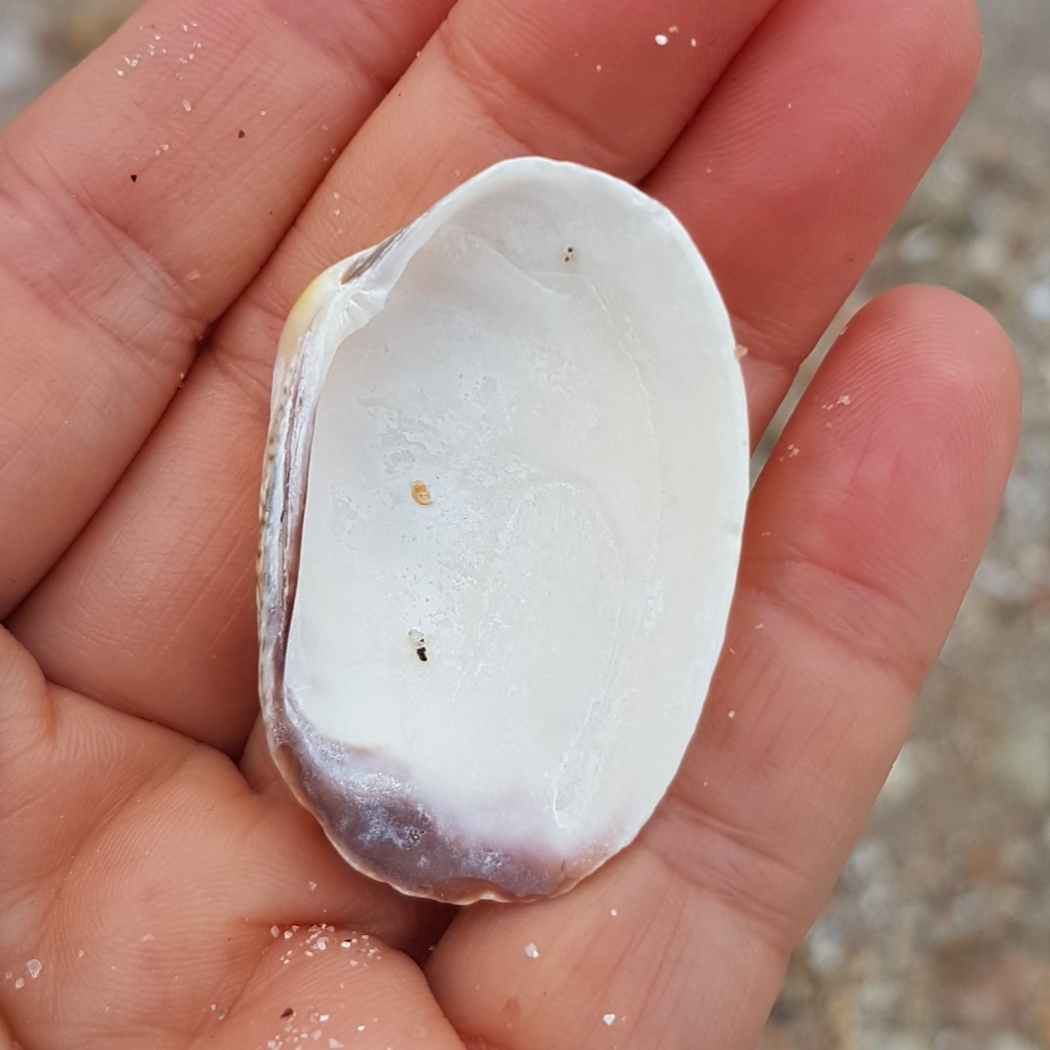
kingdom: Animalia
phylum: Mollusca
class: Bivalvia
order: Venerida
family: Veneridae
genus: Venerupis
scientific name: Venerupis corrugata
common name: Pullet carpet shell
